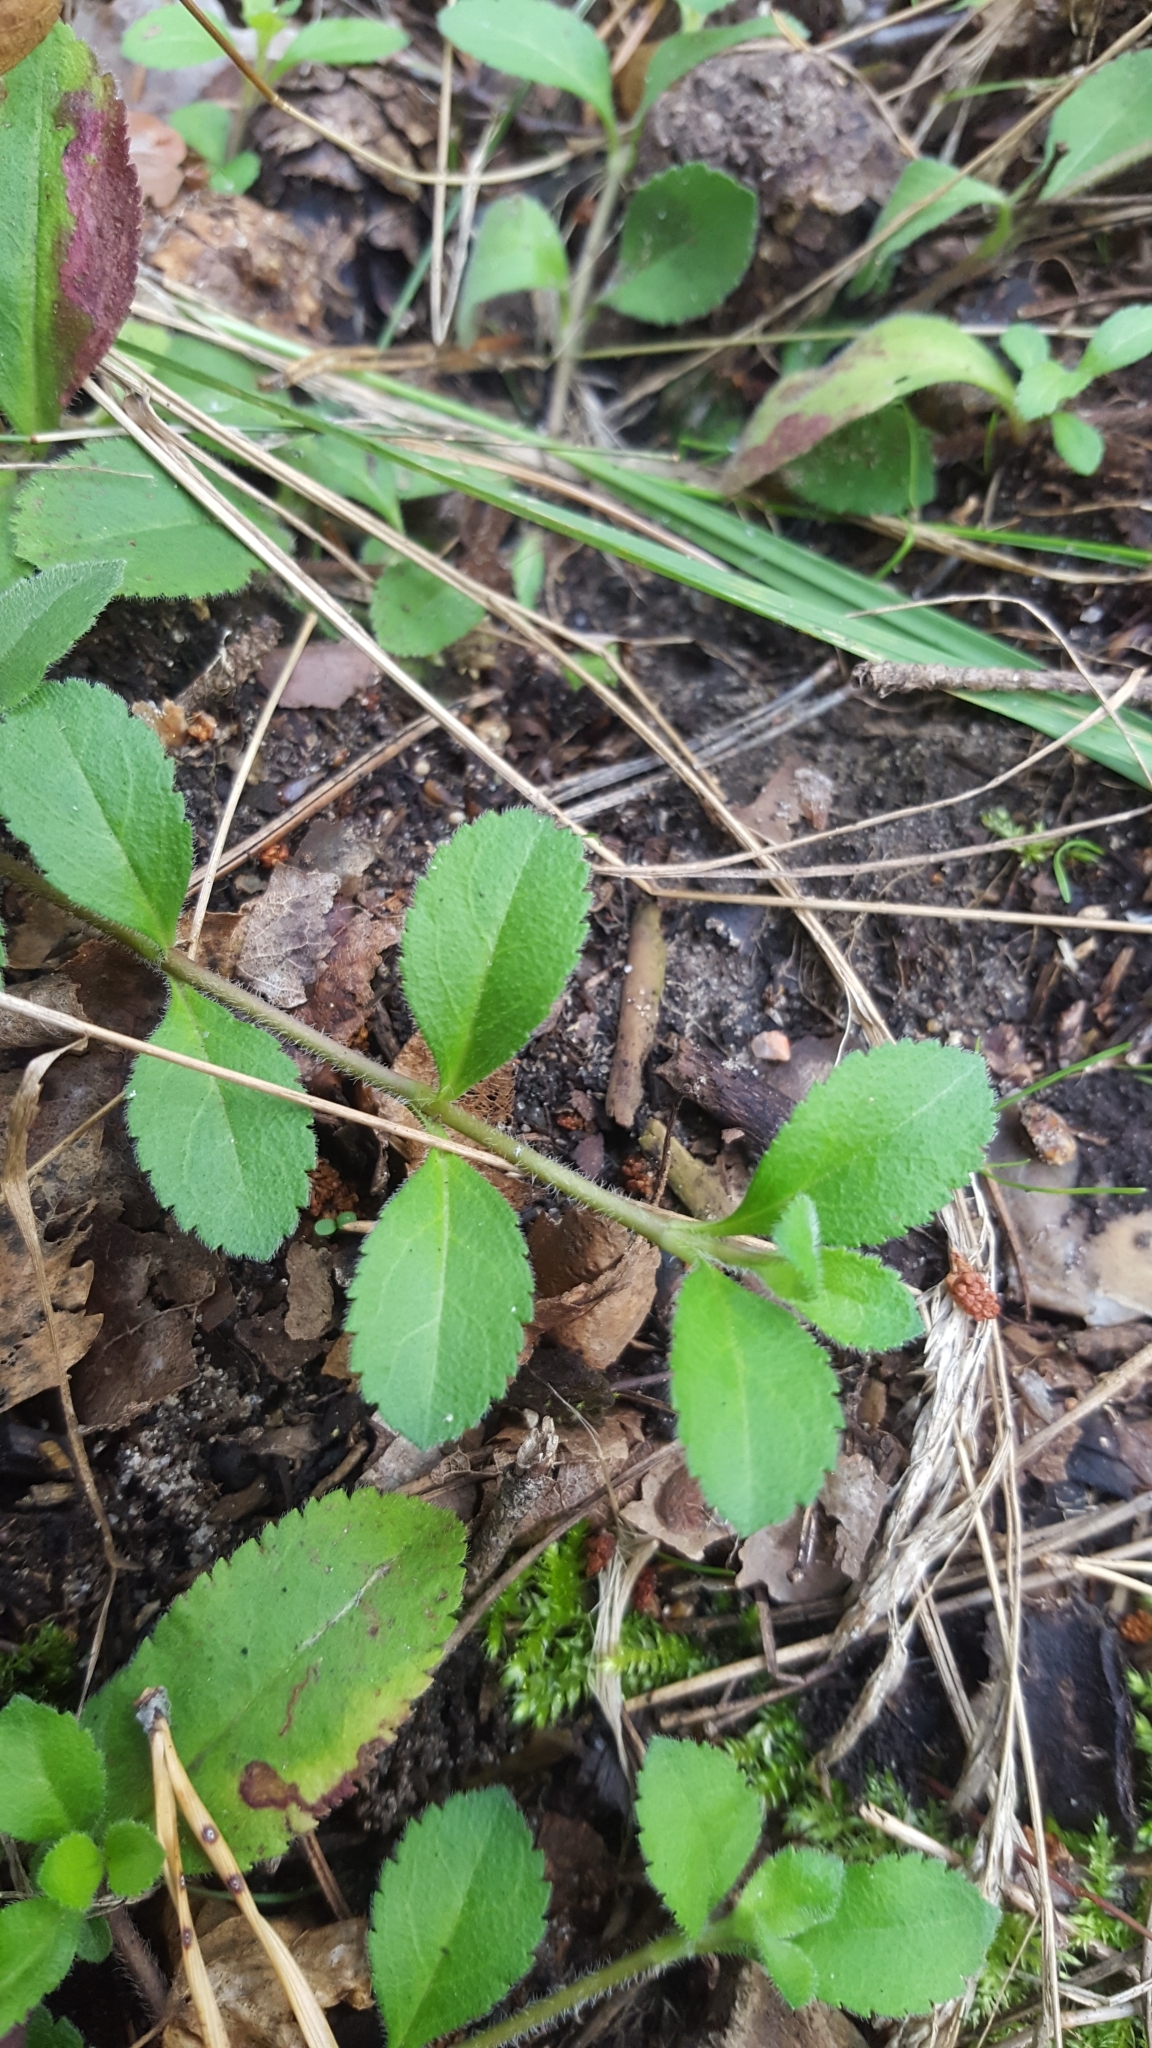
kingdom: Plantae
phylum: Tracheophyta
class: Magnoliopsida
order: Lamiales
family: Plantaginaceae
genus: Veronica
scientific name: Veronica officinalis
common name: Common speedwell
